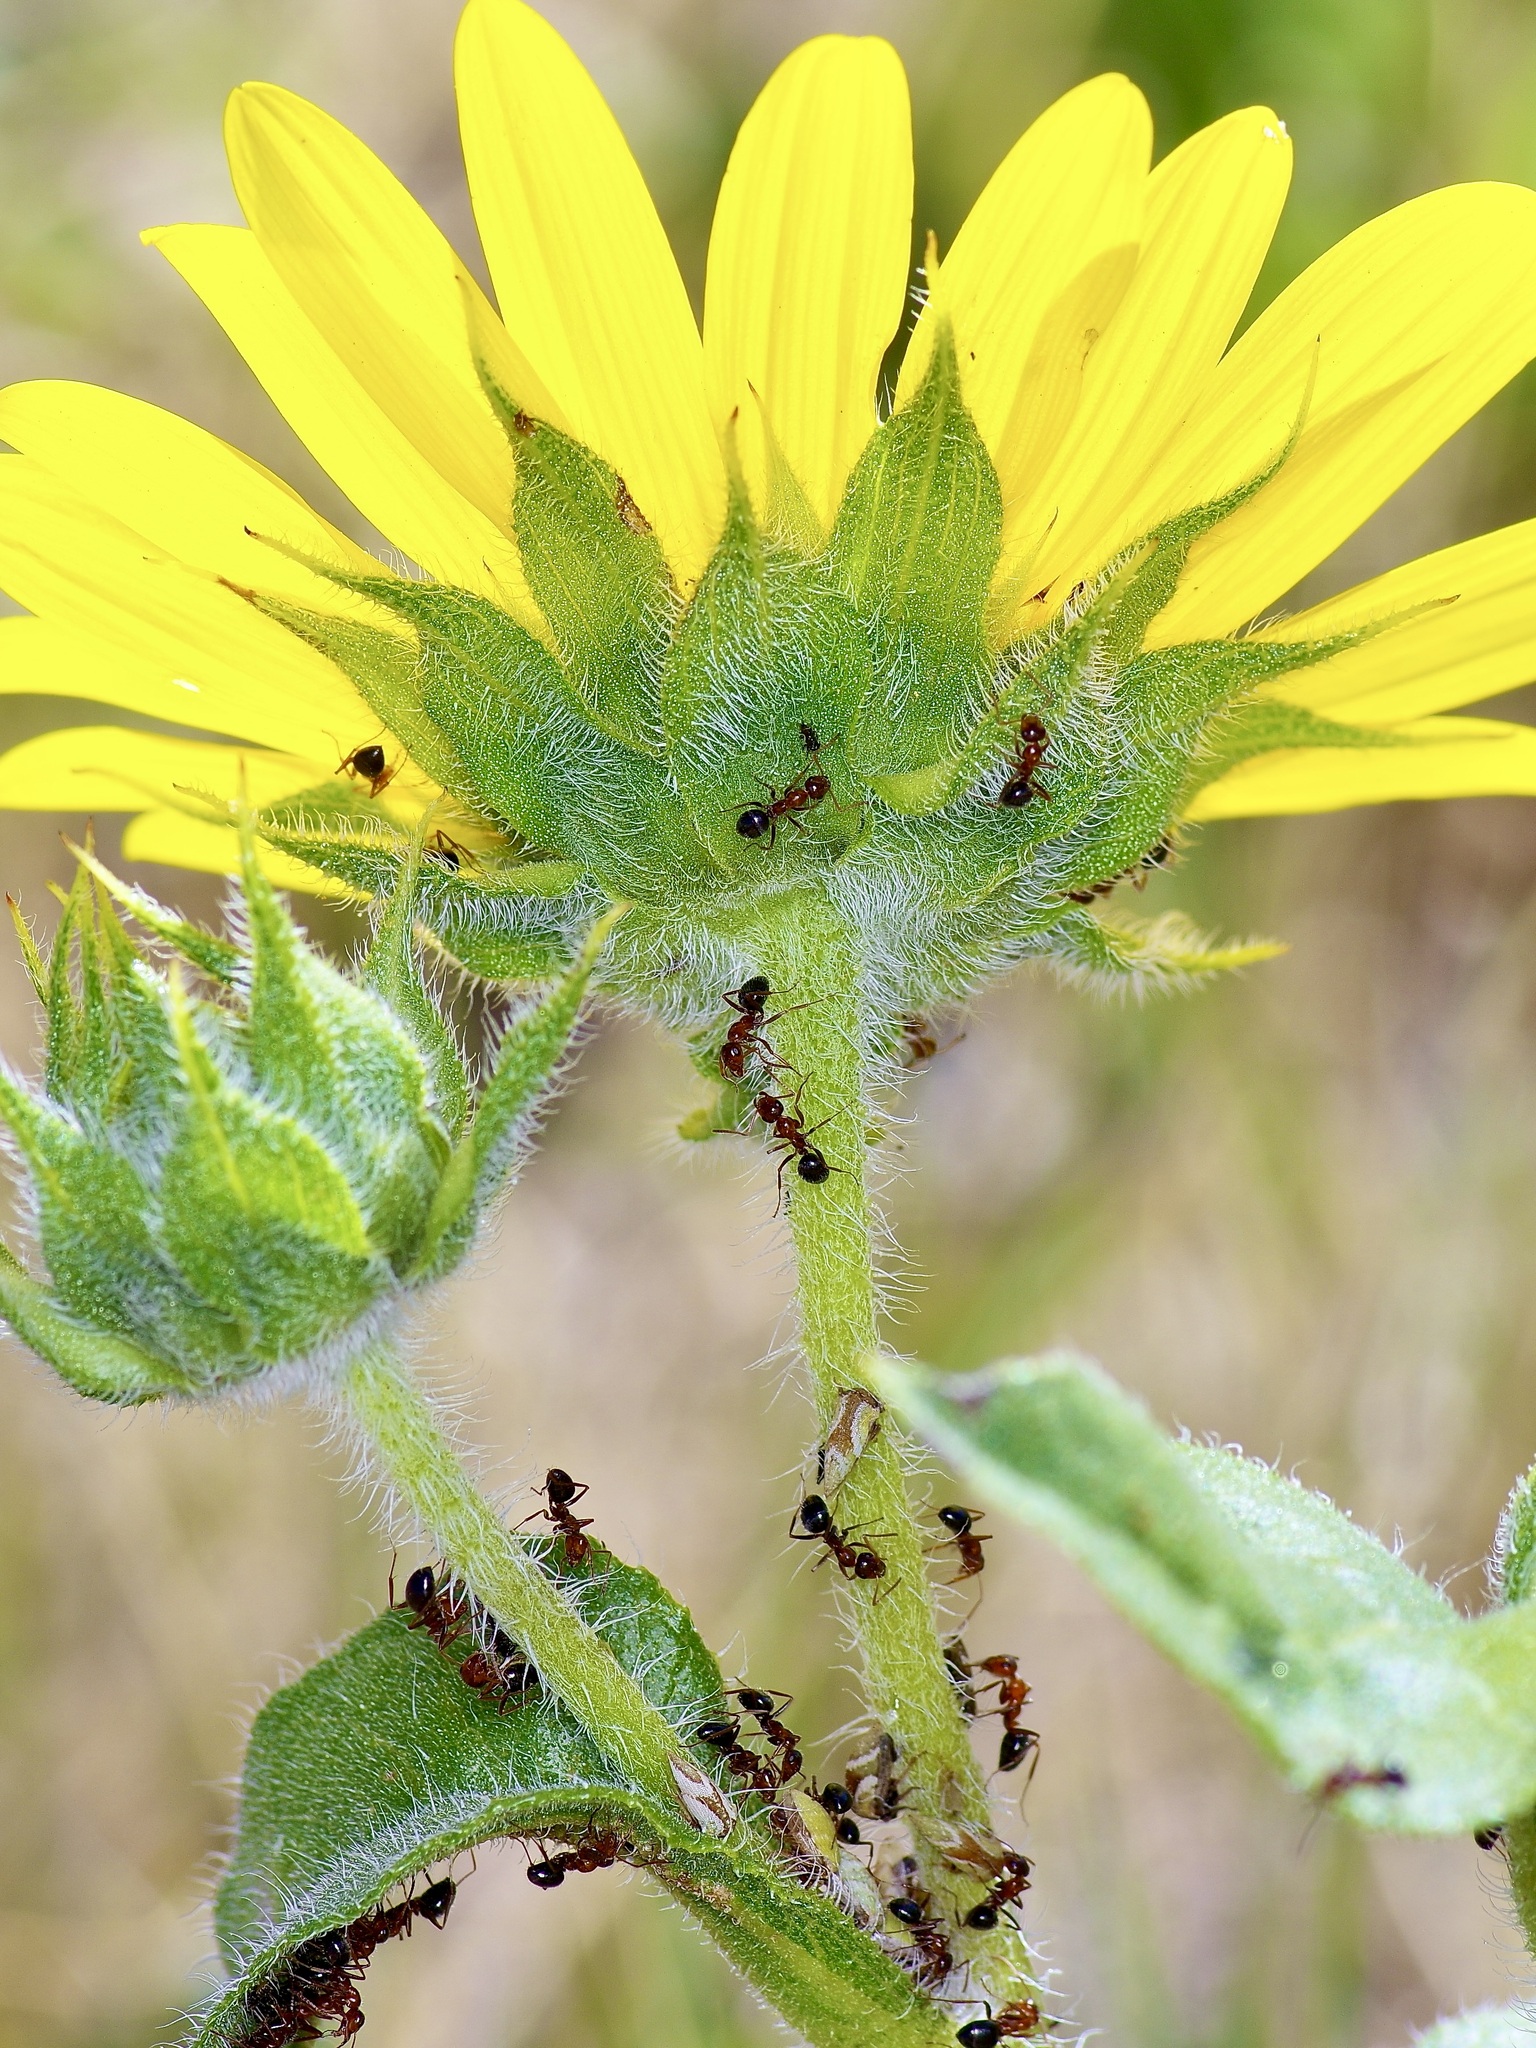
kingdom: Animalia
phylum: Arthropoda
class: Insecta
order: Hymenoptera
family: Formicidae
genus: Formica
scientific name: Formica perpilosa
